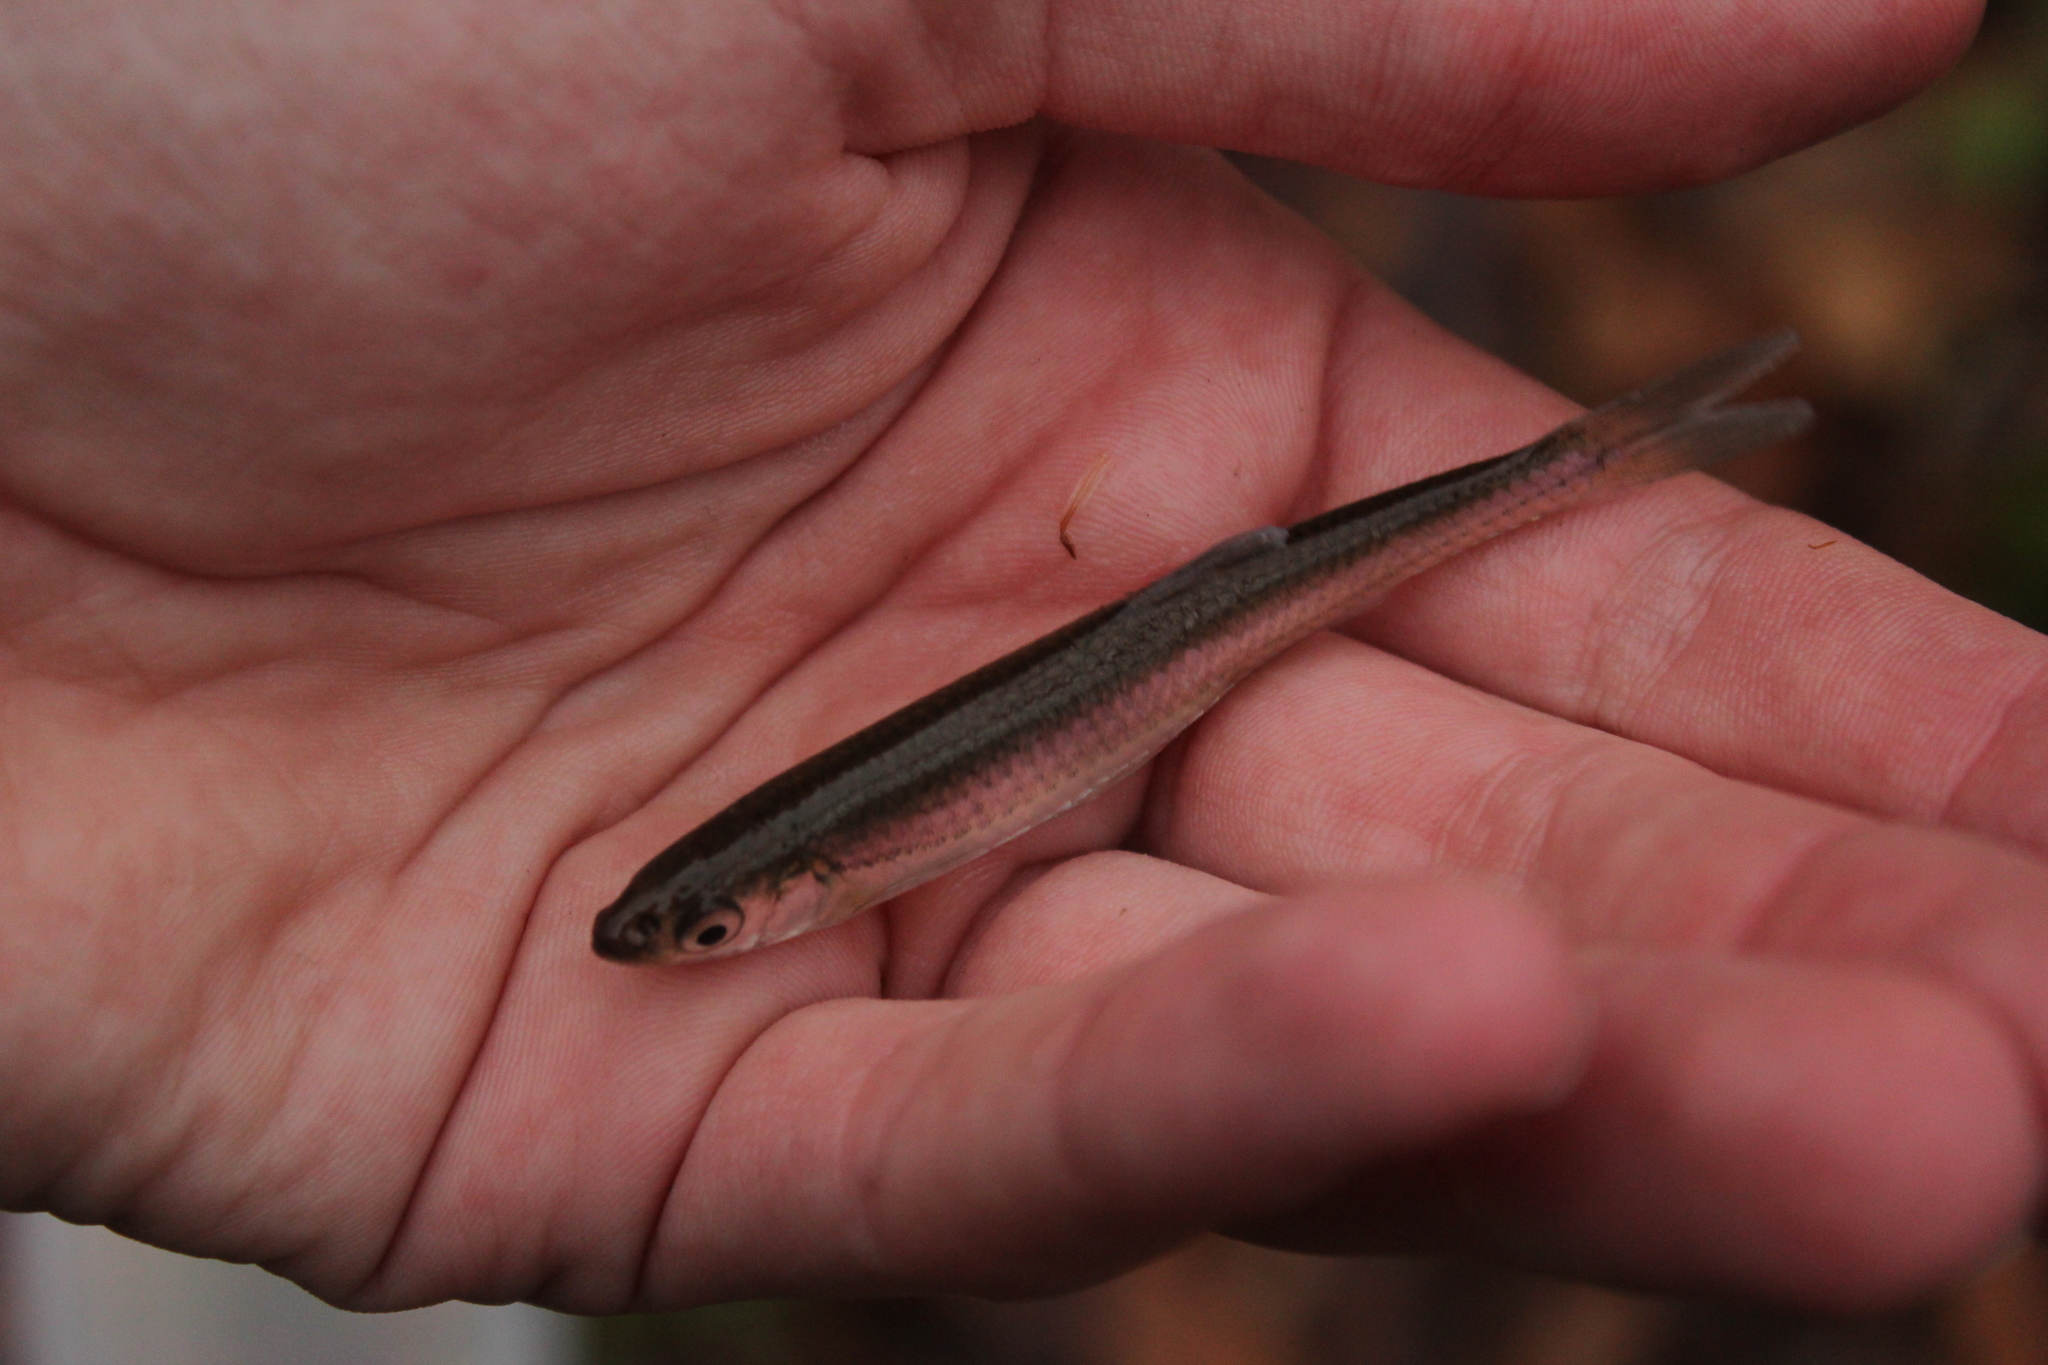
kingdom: Animalia
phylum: Chordata
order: Cypriniformes
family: Cyprinidae
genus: Notropis
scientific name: Notropis rubellus
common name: Rosyface shiner
